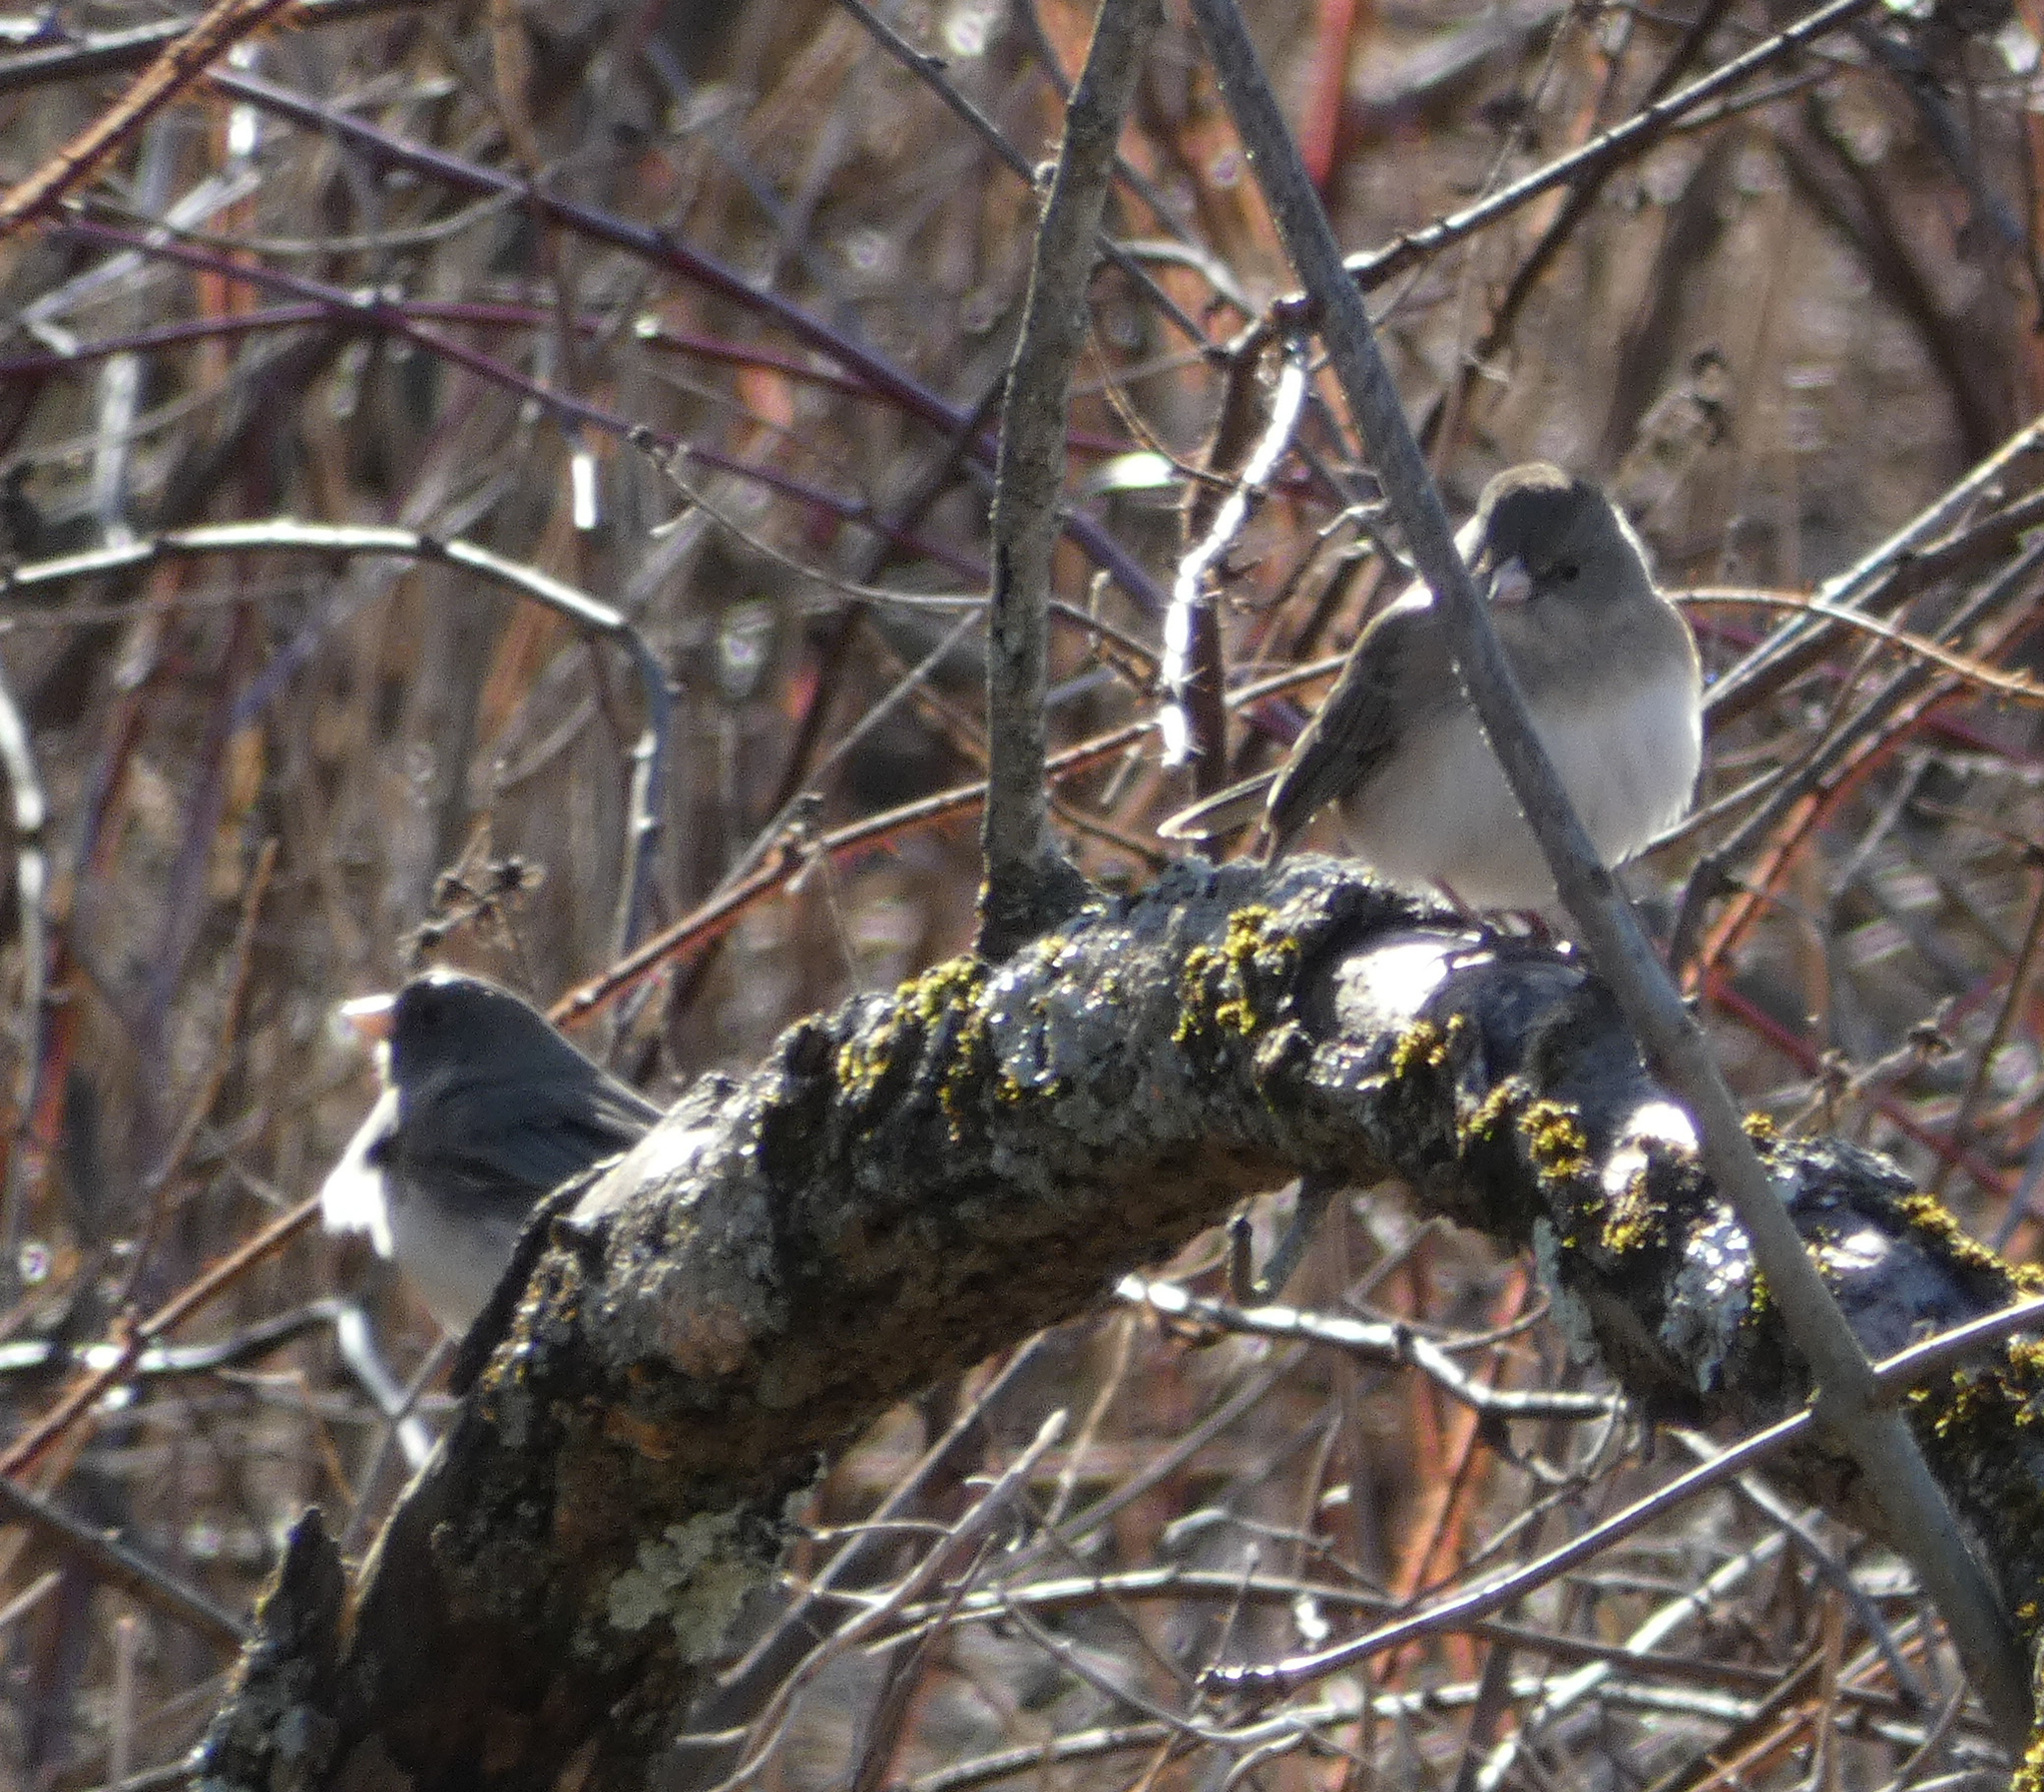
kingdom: Animalia
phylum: Chordata
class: Aves
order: Passeriformes
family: Passerellidae
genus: Junco
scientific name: Junco hyemalis
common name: Dark-eyed junco
